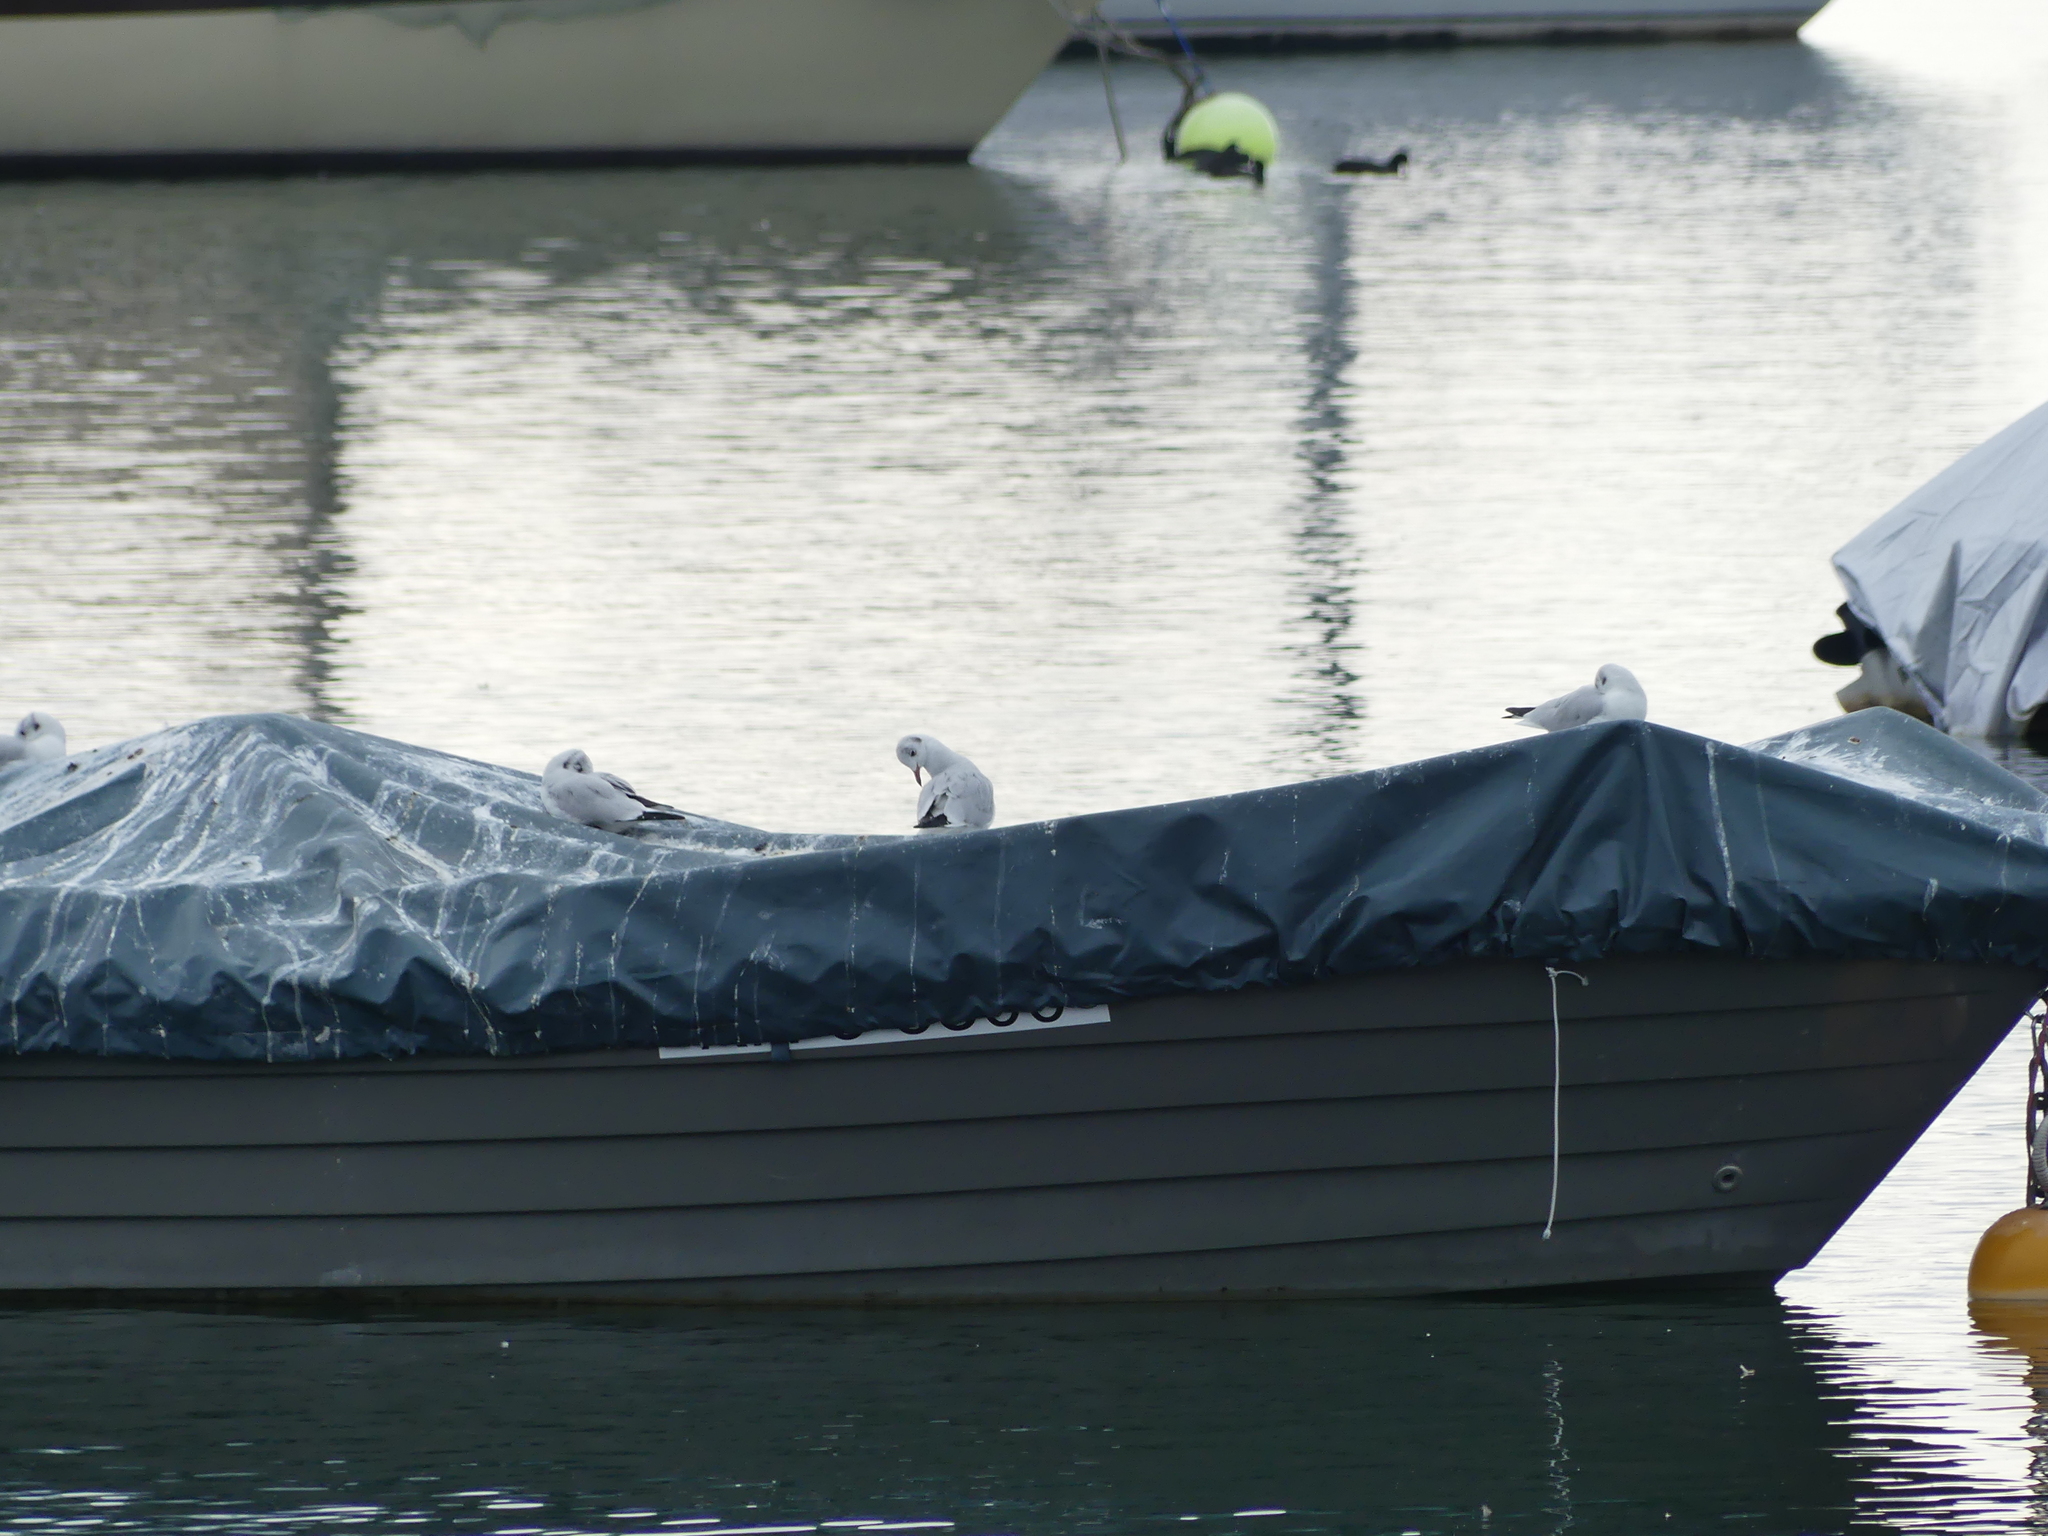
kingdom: Animalia
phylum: Chordata
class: Aves
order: Charadriiformes
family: Laridae
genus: Chroicocephalus
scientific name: Chroicocephalus ridibundus
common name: Black-headed gull
